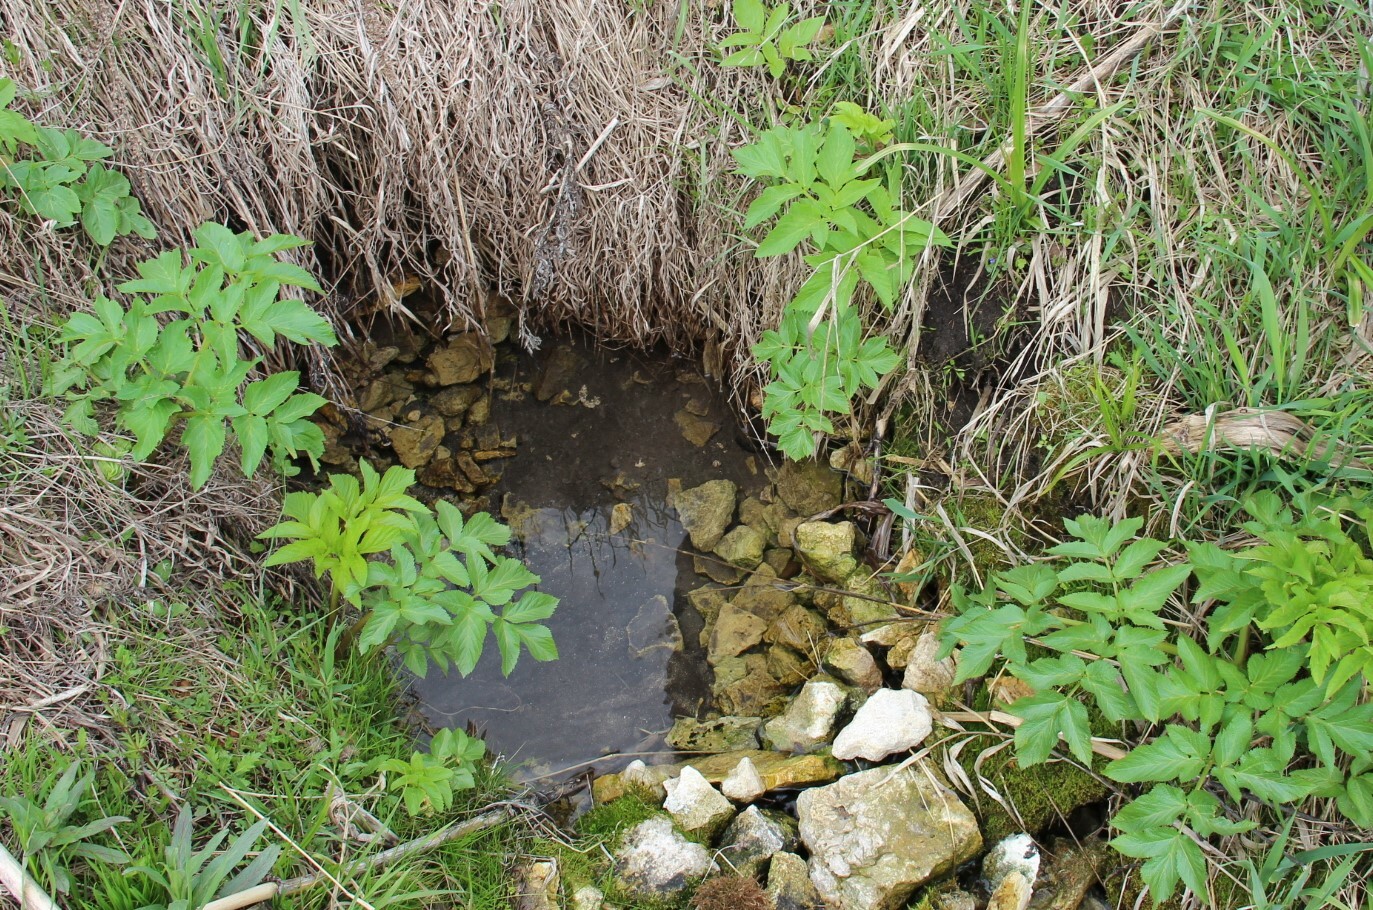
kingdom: Plantae
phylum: Tracheophyta
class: Magnoliopsida
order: Apiales
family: Apiaceae
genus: Angelica
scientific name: Angelica archangelica
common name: Garden angelica
